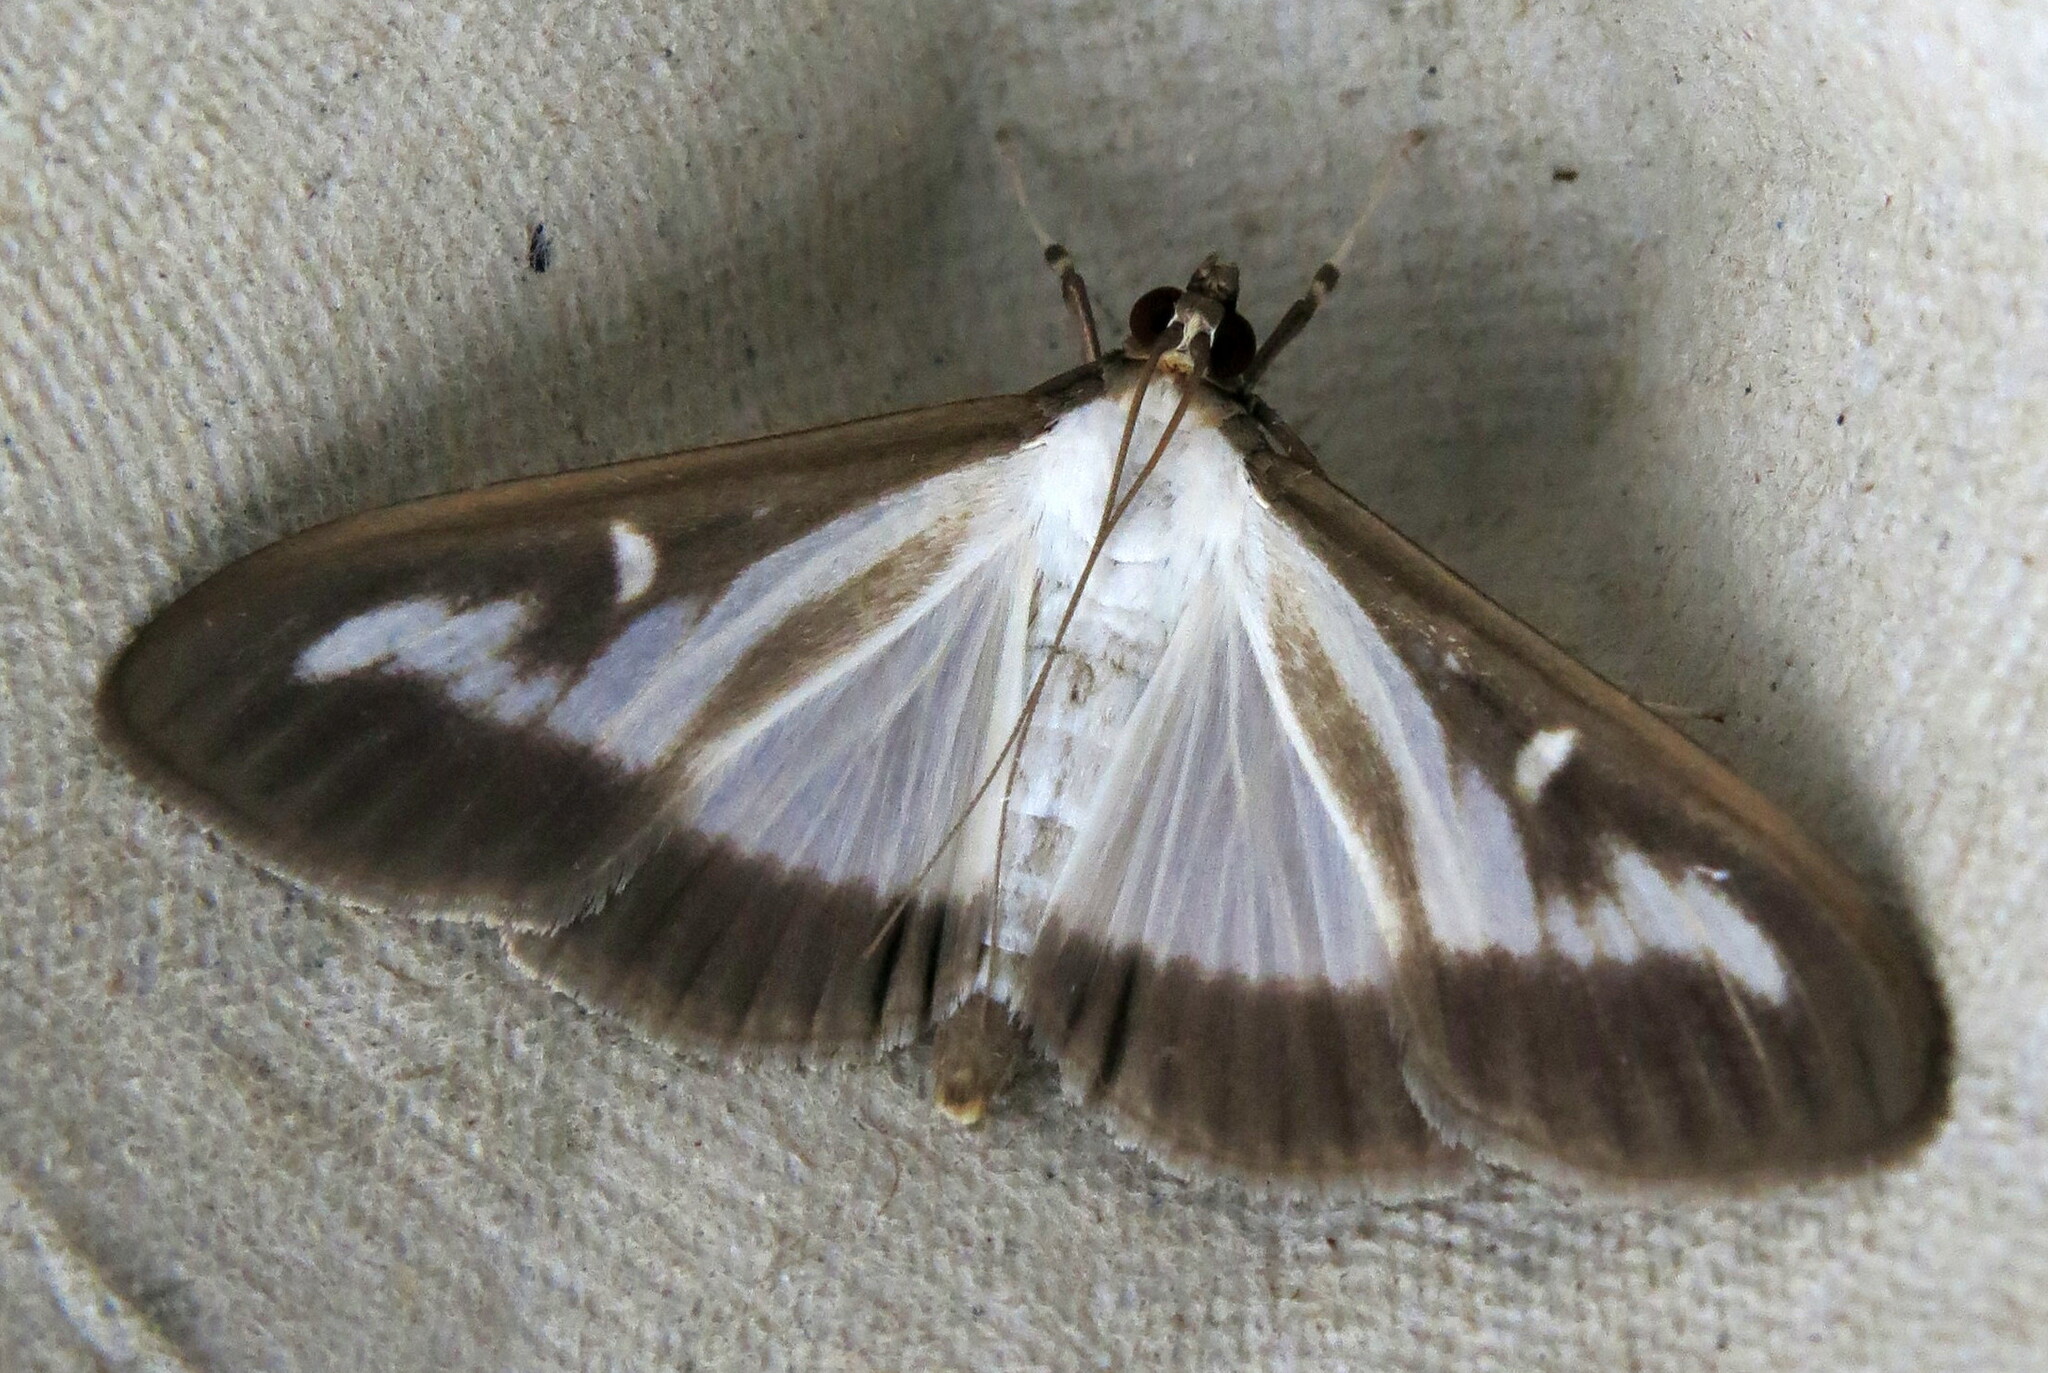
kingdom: Animalia
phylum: Arthropoda
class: Insecta
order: Lepidoptera
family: Crambidae
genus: Cydalima
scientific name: Cydalima perspectalis
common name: Box tree moth
